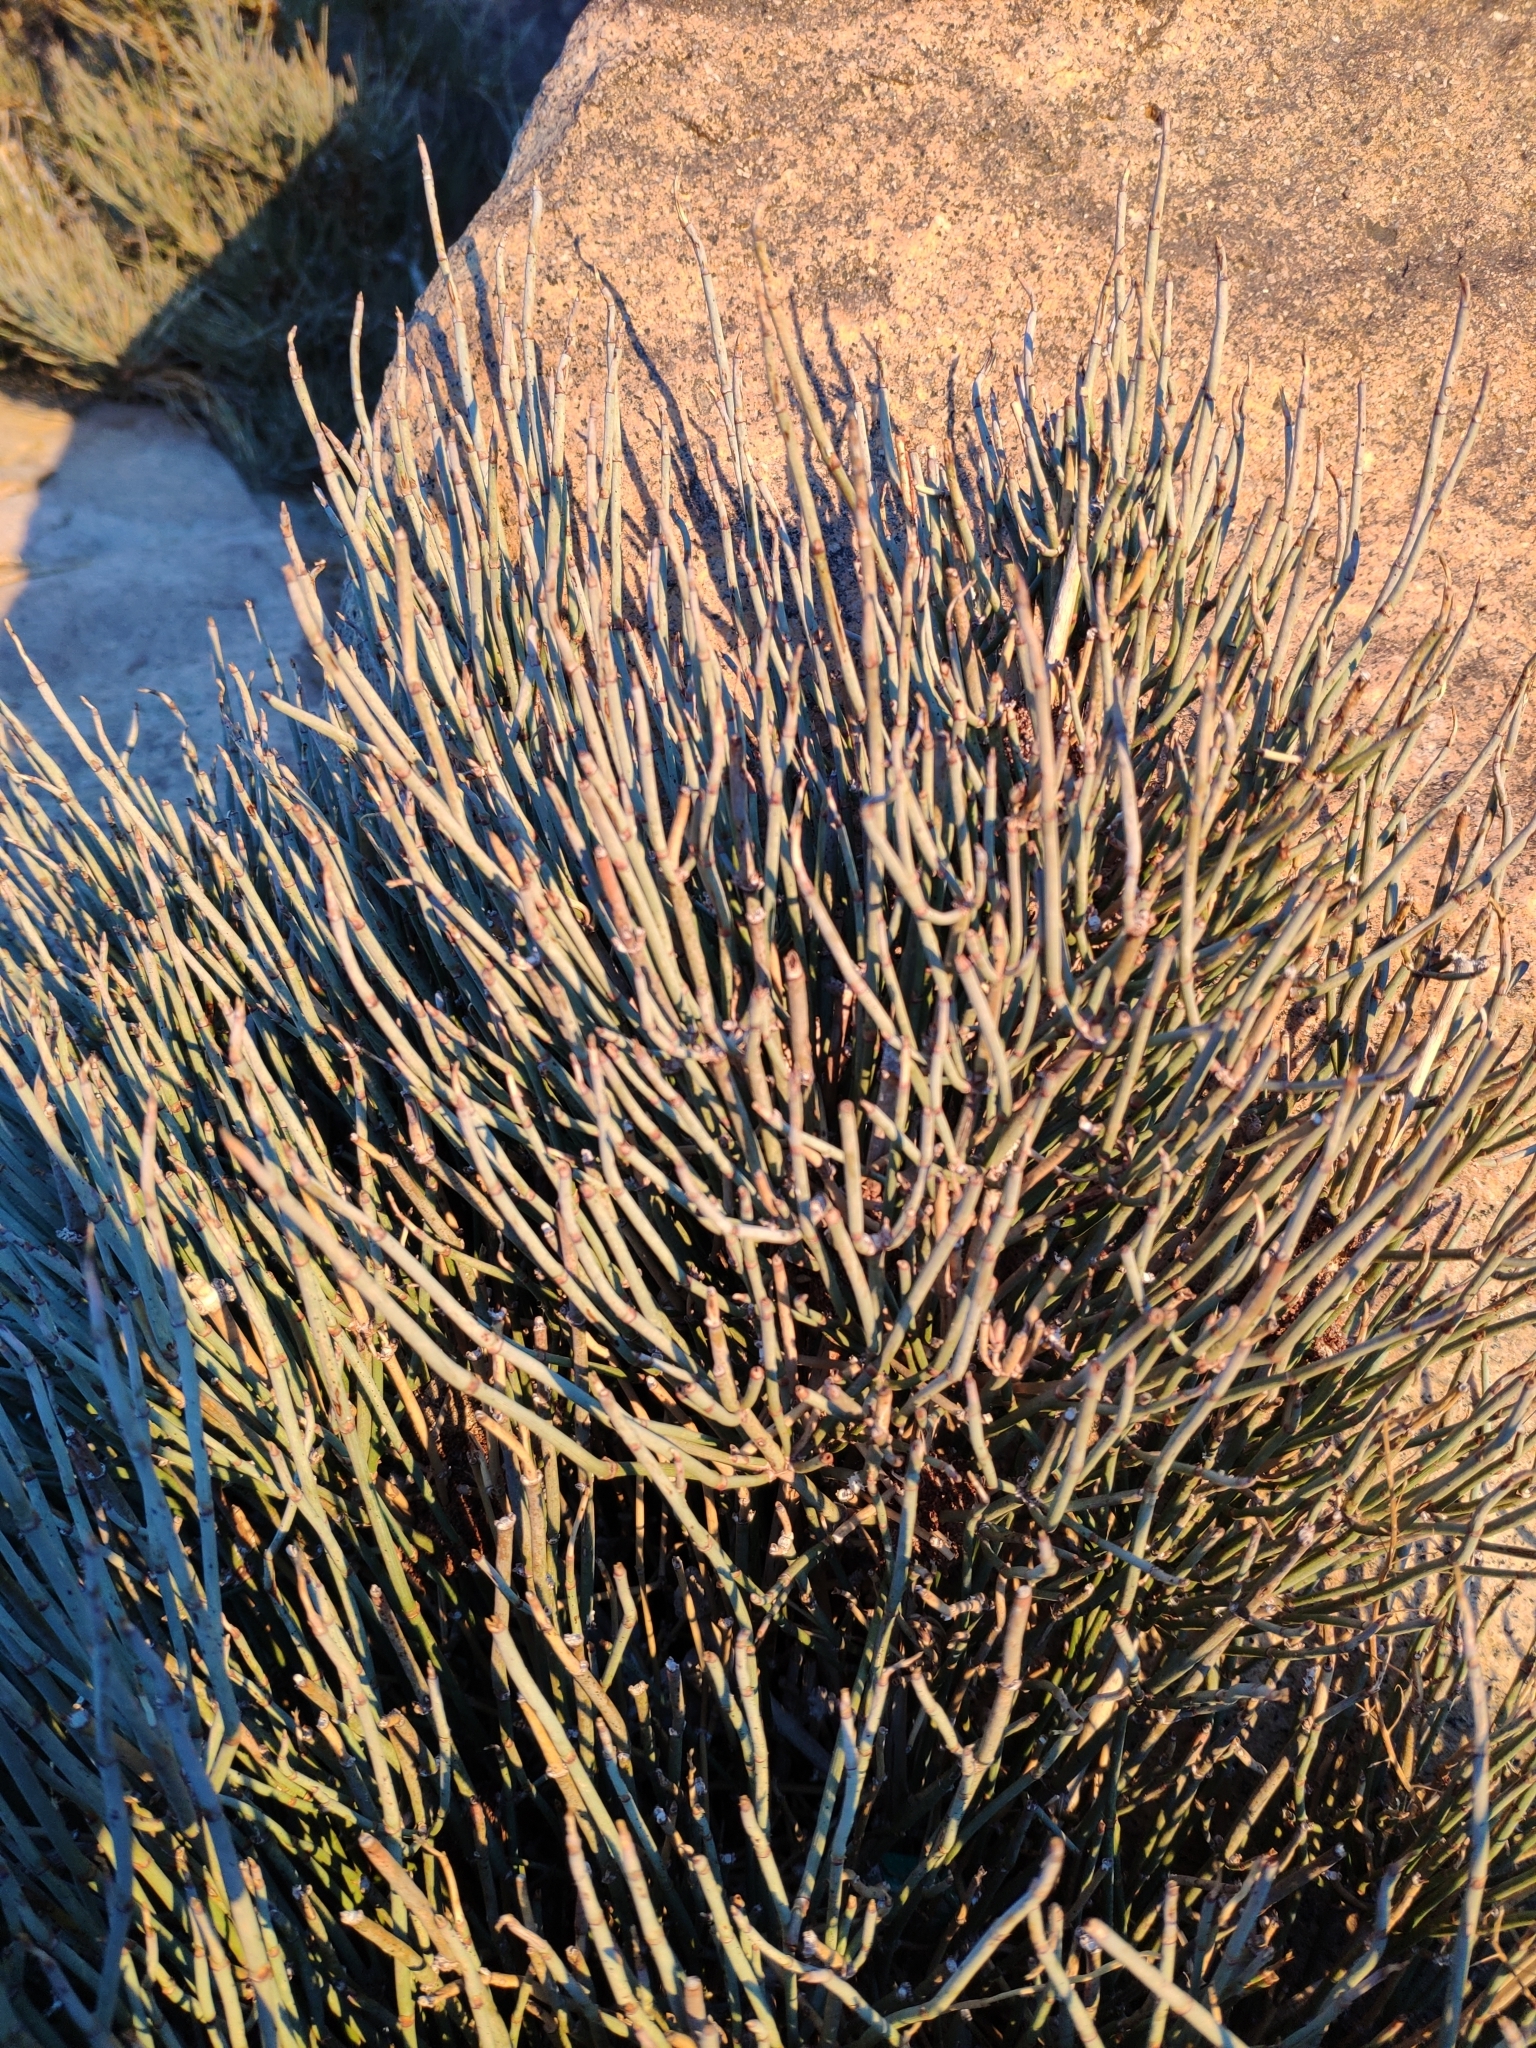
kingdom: Plantae
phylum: Tracheophyta
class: Gnetopsida
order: Ephedrales
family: Ephedraceae
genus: Ephedra
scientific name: Ephedra alata
